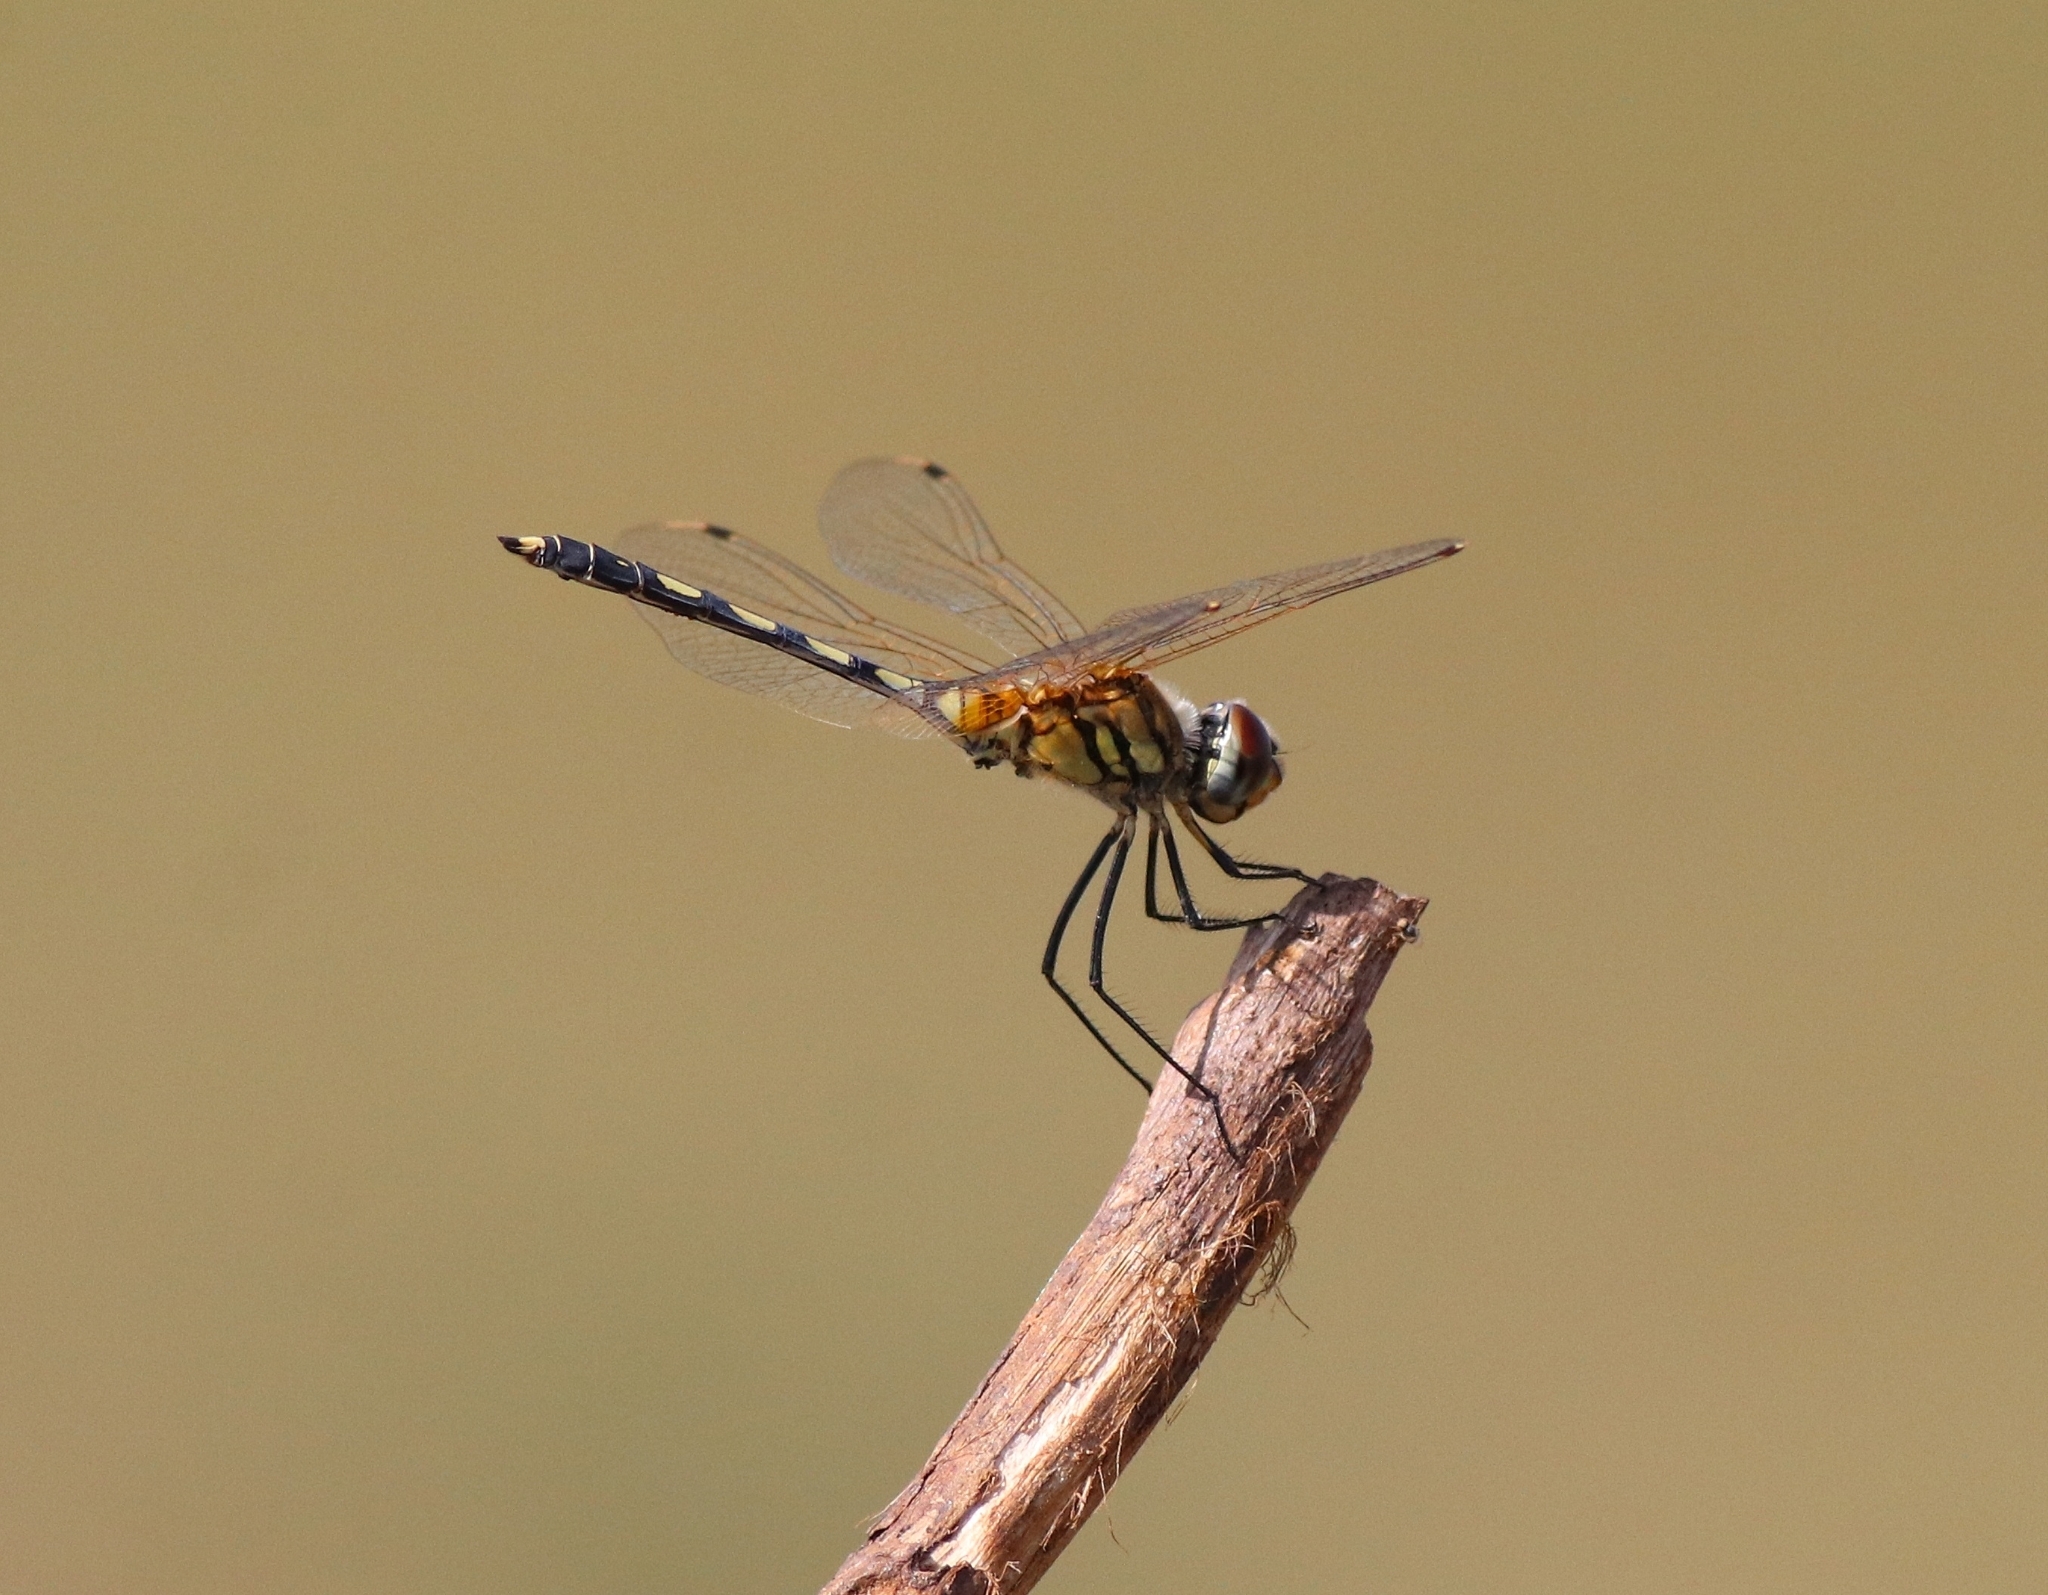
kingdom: Animalia
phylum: Arthropoda
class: Insecta
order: Odonata
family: Libellulidae
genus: Trithemis
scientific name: Trithemis pallidinervis
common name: Dancing dropwing
